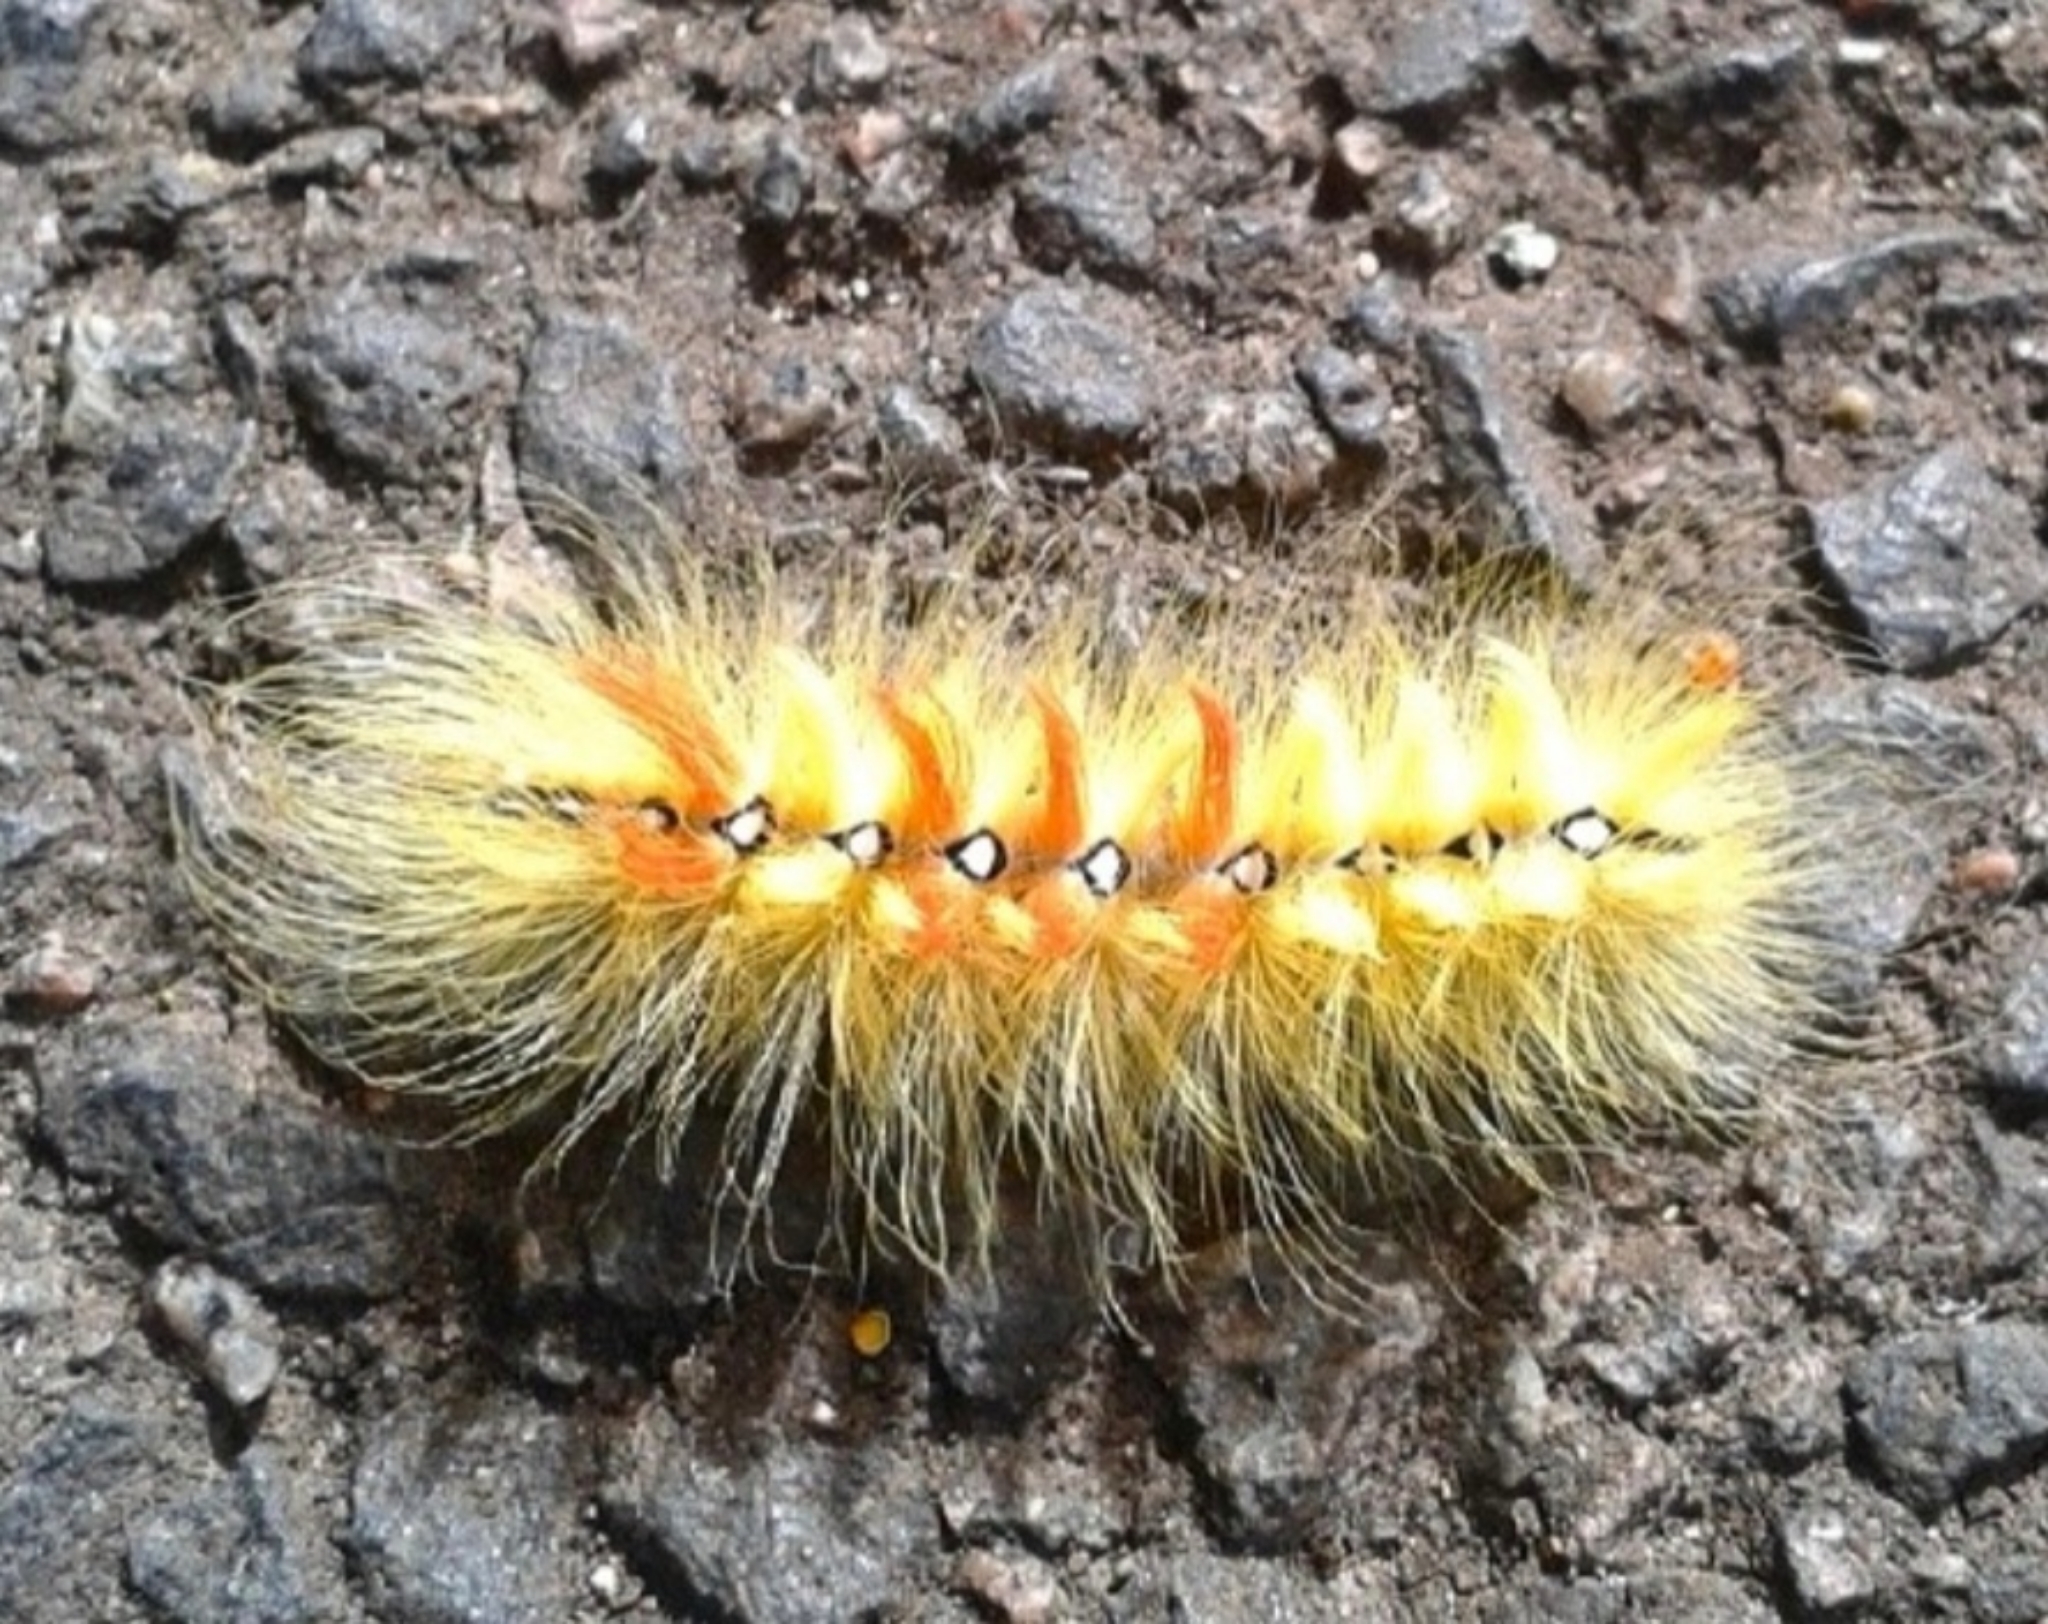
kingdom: Animalia
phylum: Arthropoda
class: Insecta
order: Lepidoptera
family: Noctuidae
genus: Acronicta
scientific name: Acronicta aceris
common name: Sycamore
